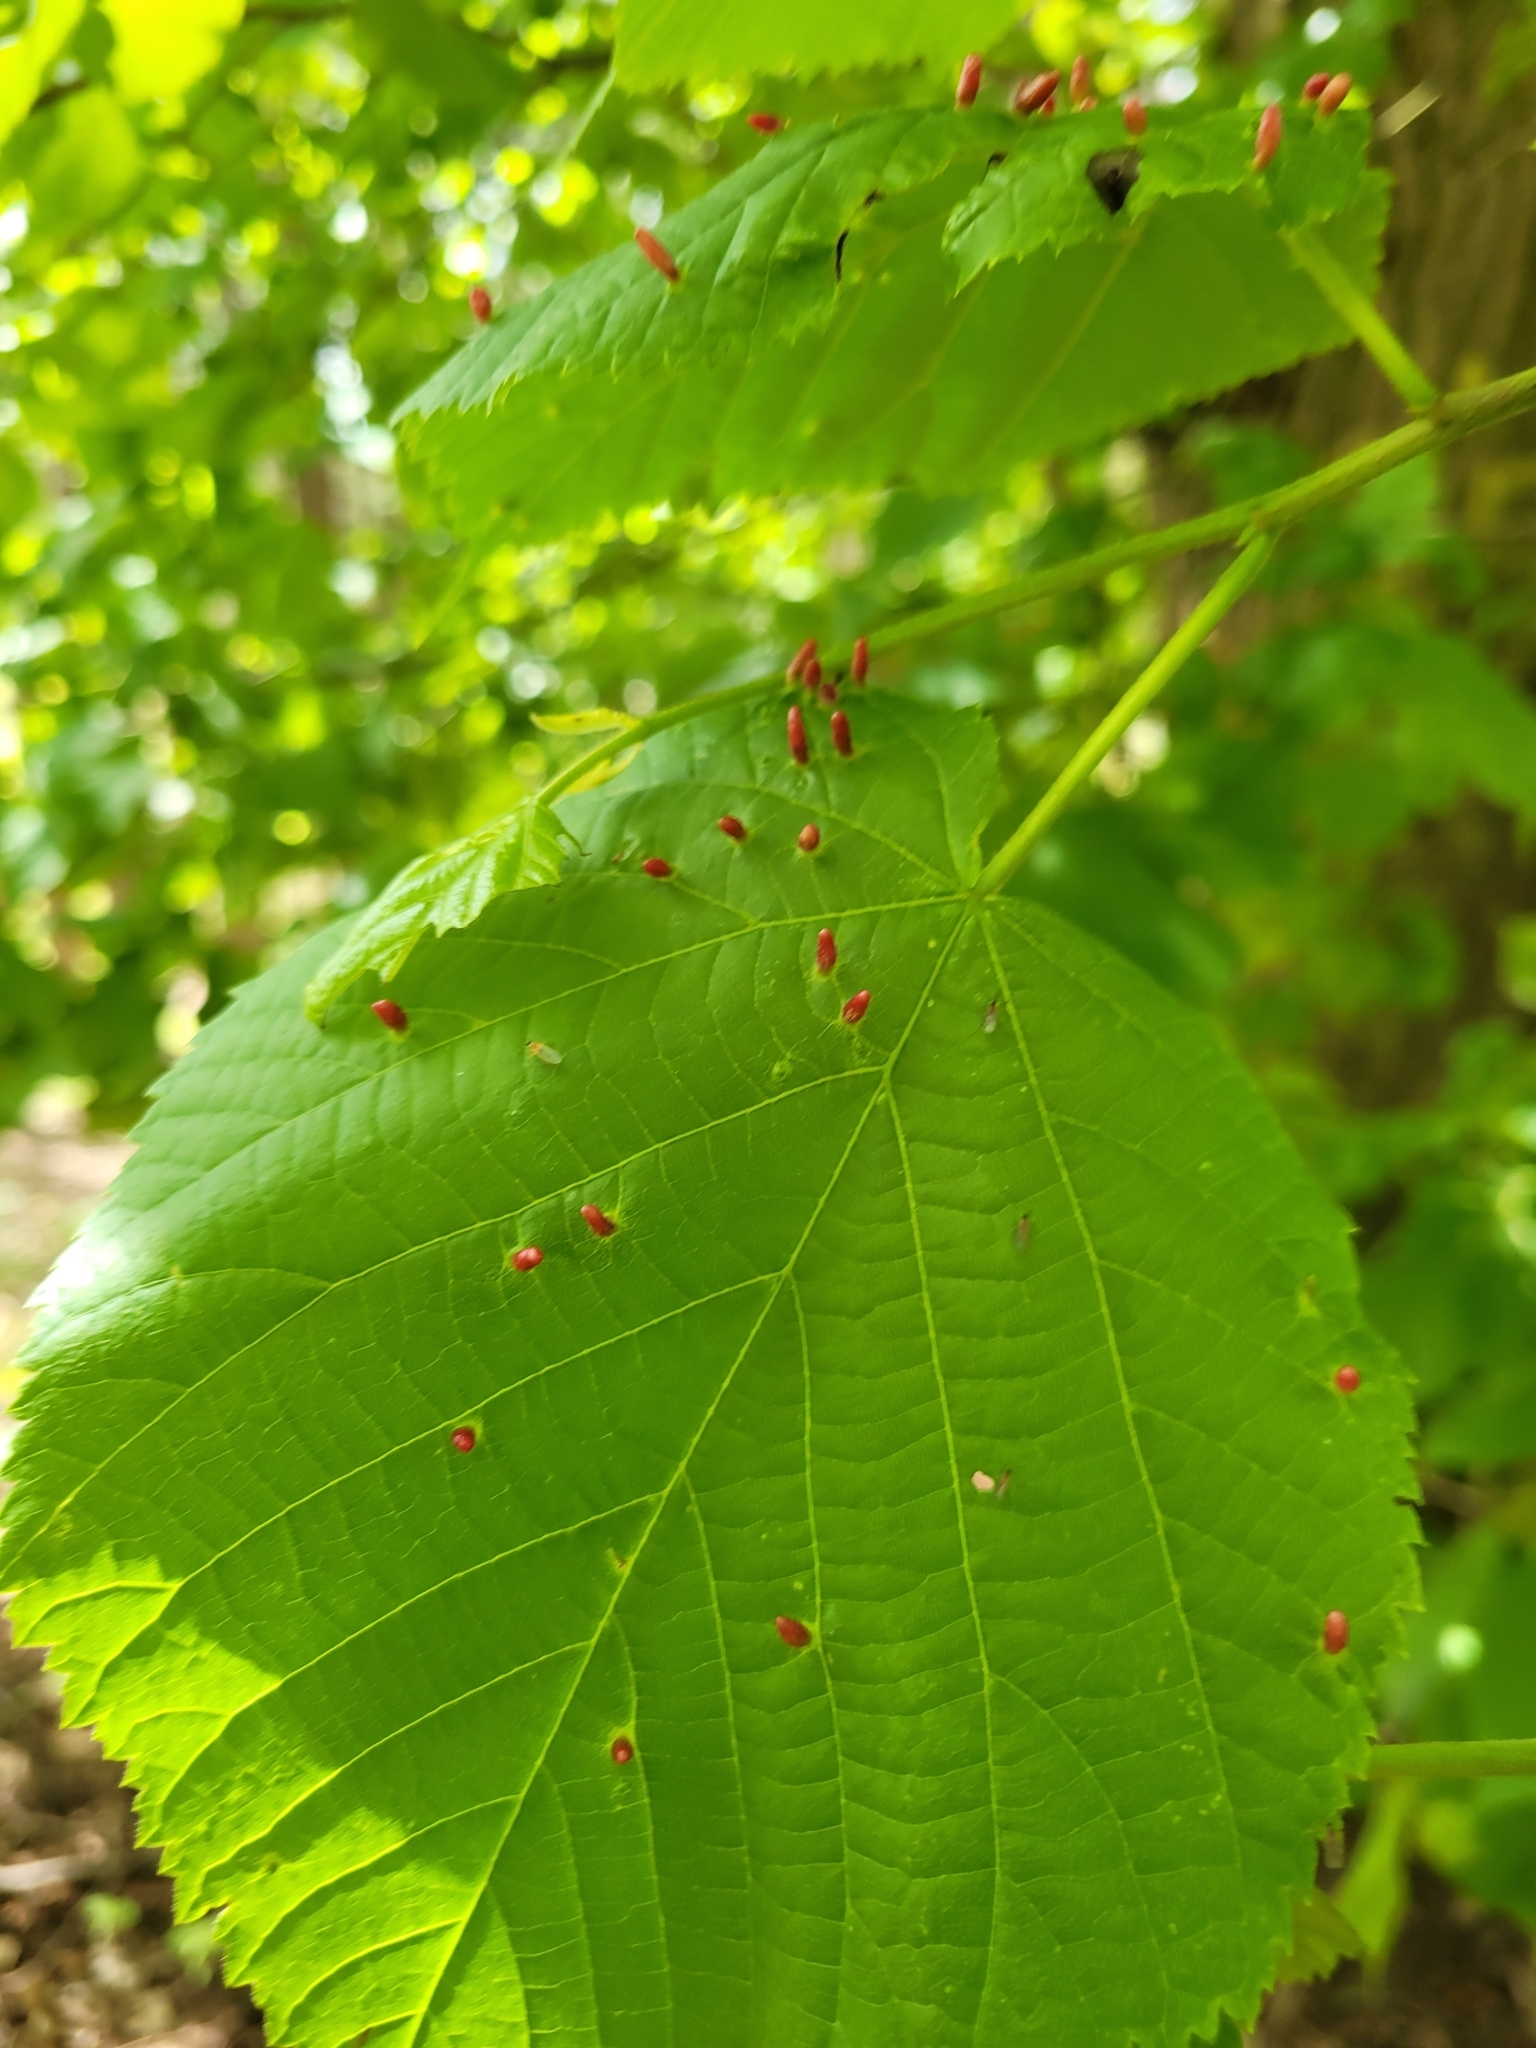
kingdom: Animalia
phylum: Arthropoda
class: Arachnida
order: Trombidiformes
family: Eriophyidae
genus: Eriophyes
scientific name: Eriophyes tiliae
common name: Red nail gall mite
